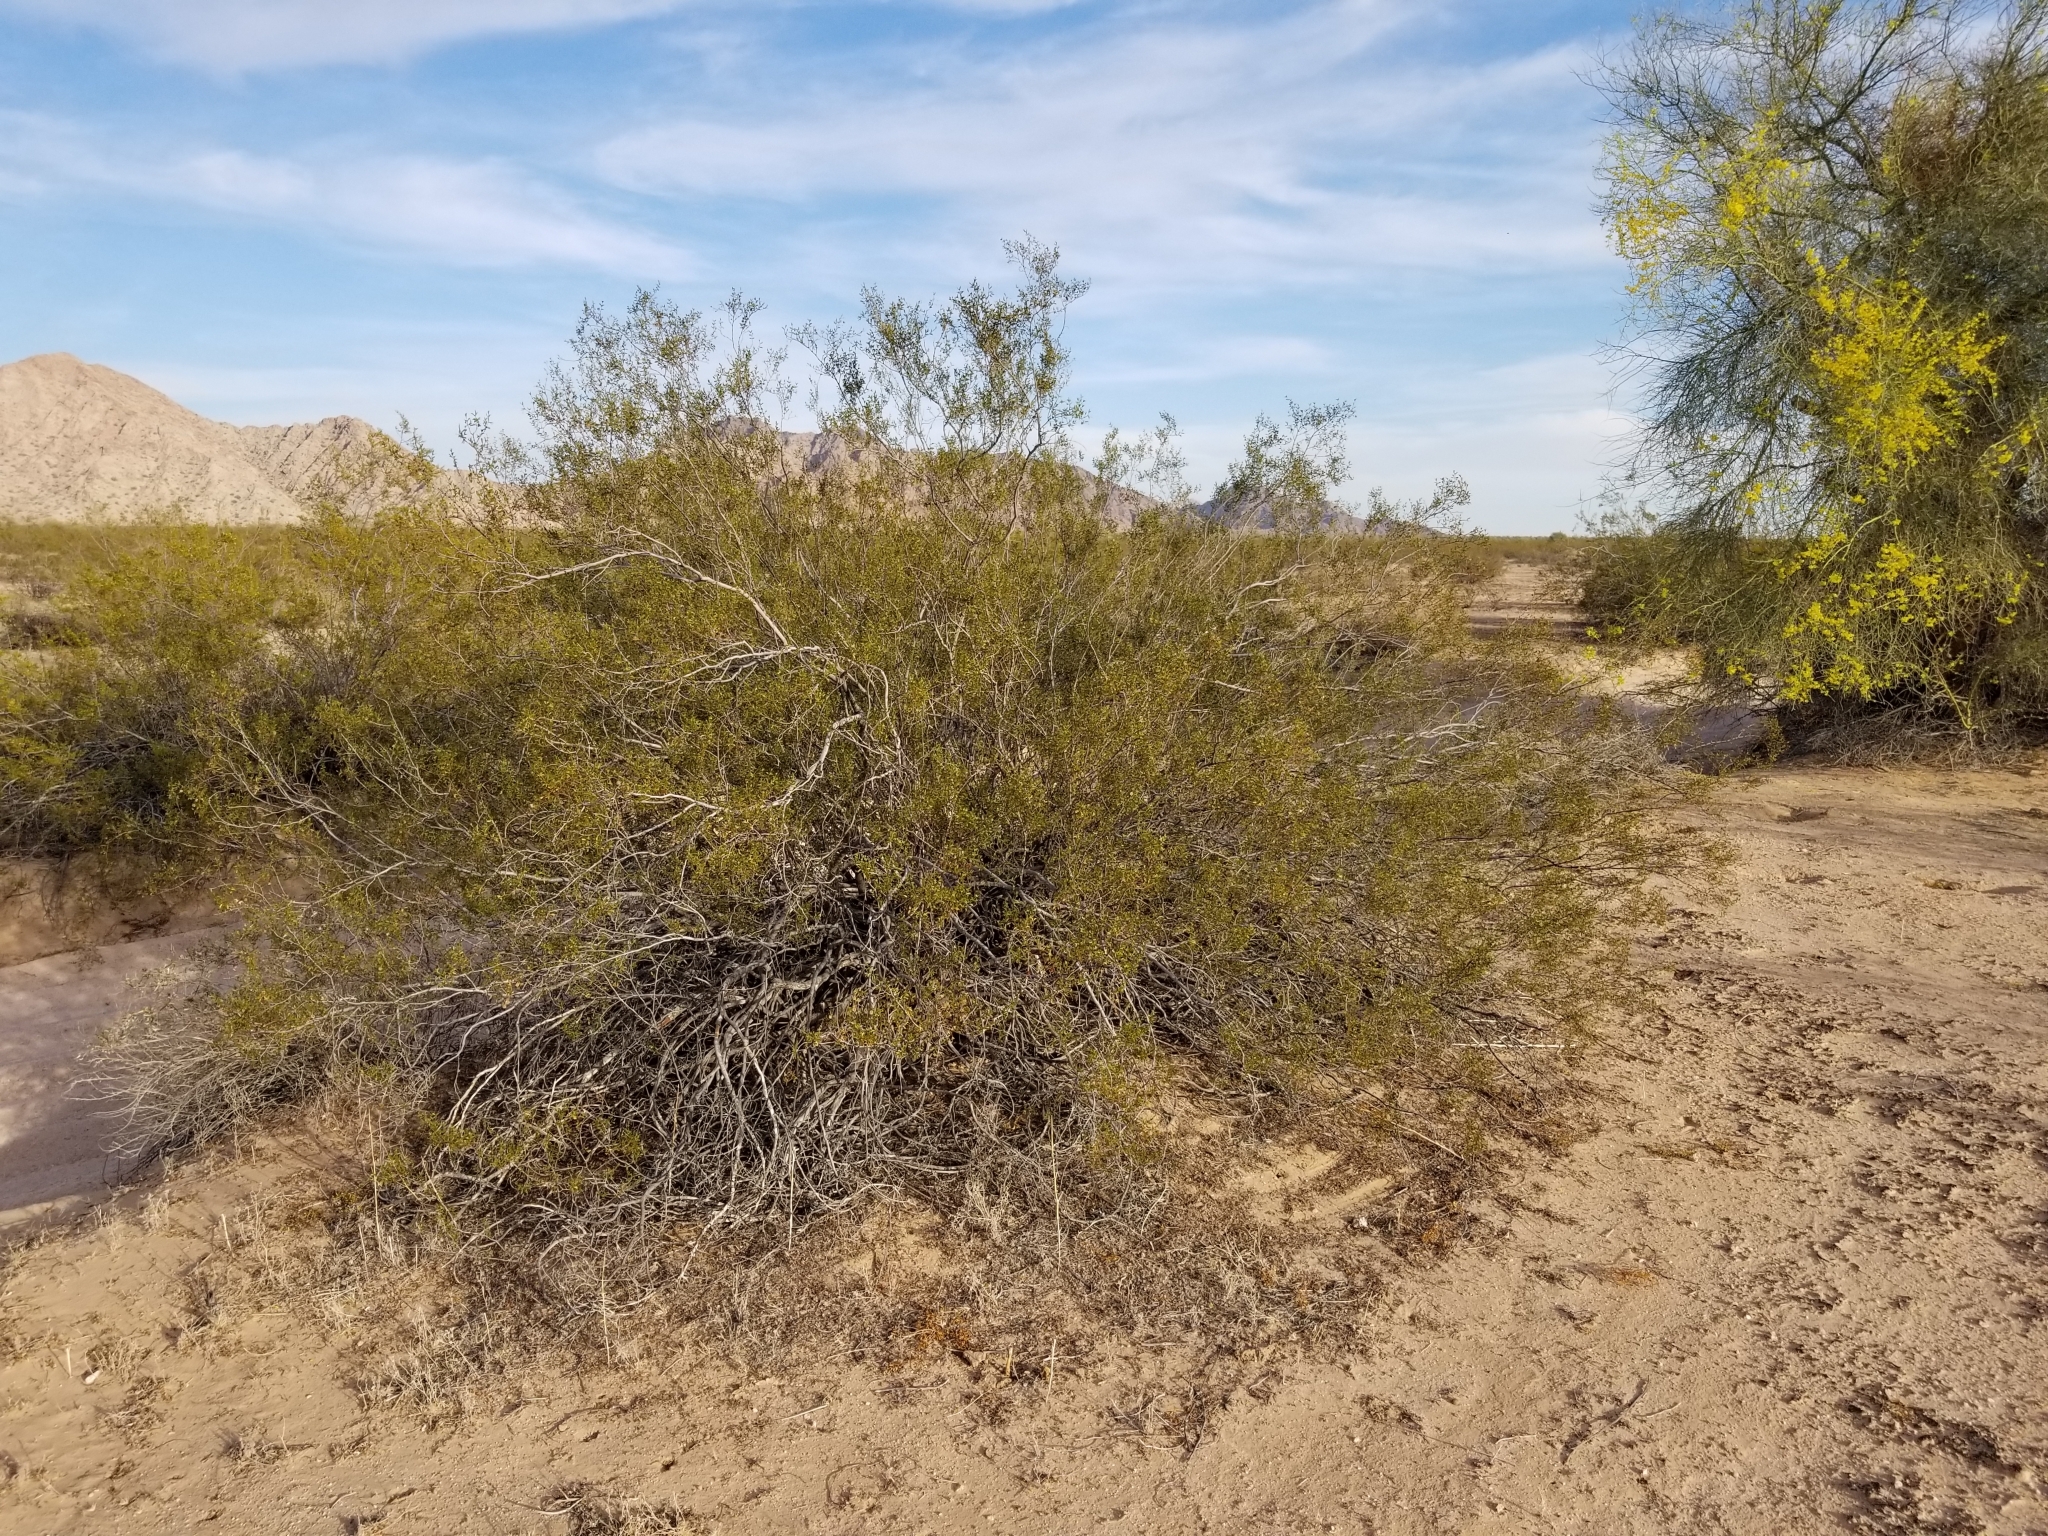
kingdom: Plantae
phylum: Tracheophyta
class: Magnoliopsida
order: Zygophyllales
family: Zygophyllaceae
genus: Larrea
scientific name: Larrea tridentata
